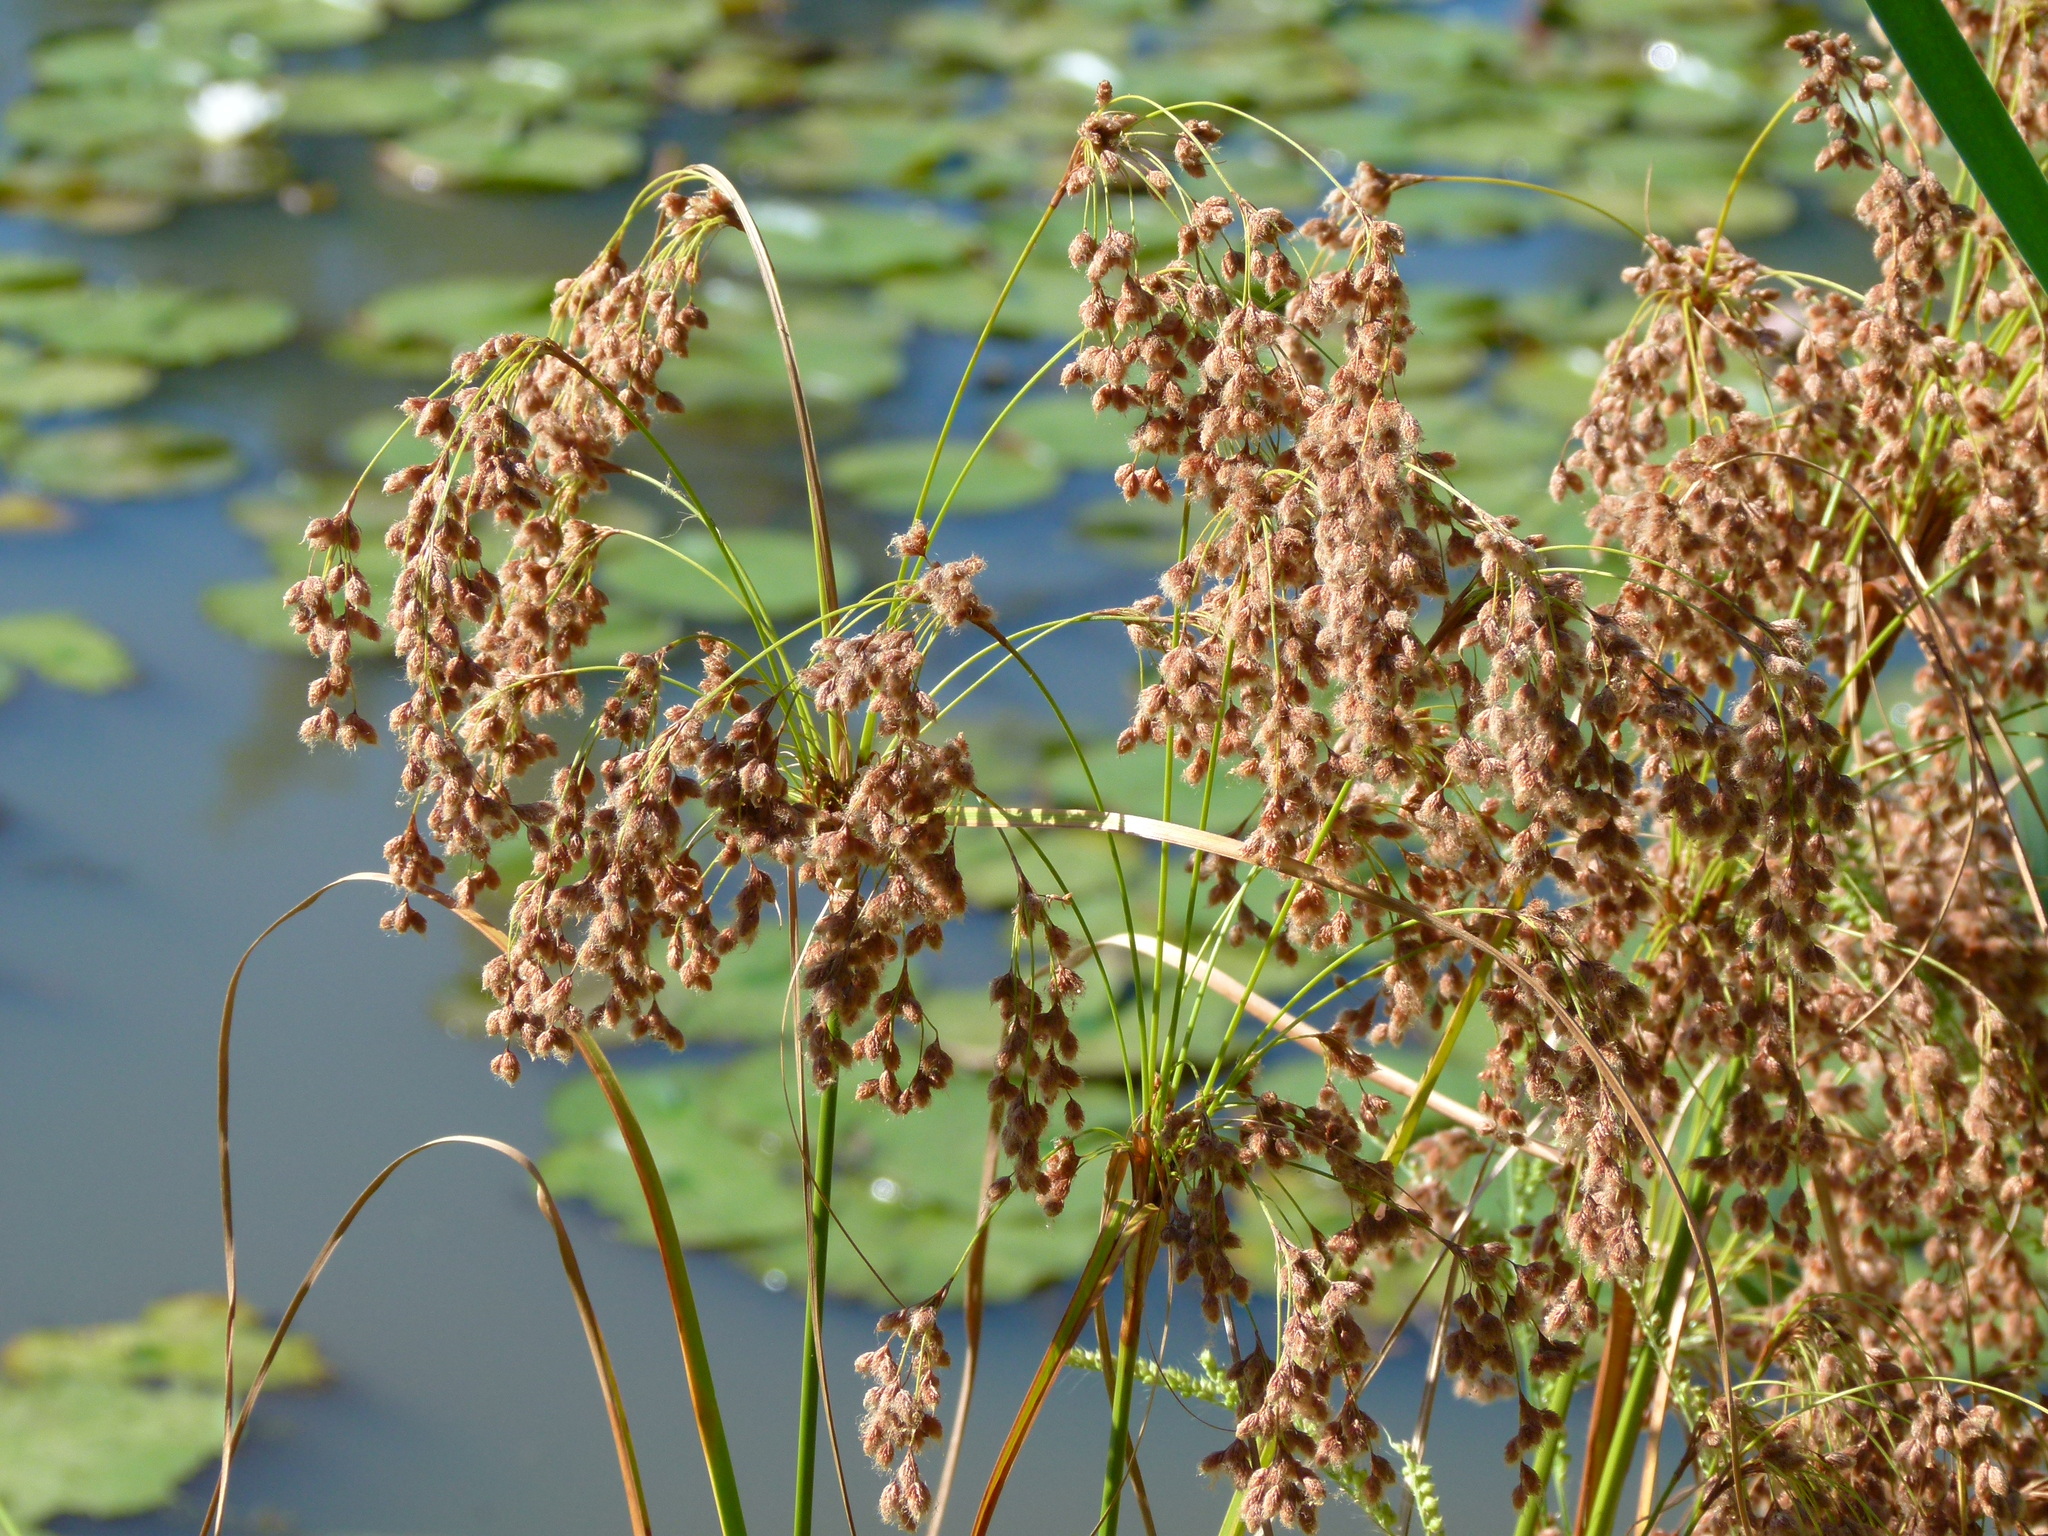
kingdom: Plantae
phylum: Tracheophyta
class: Liliopsida
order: Poales
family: Cyperaceae
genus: Scirpus
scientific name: Scirpus cyperinus
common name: Black-sheathed bulrush
